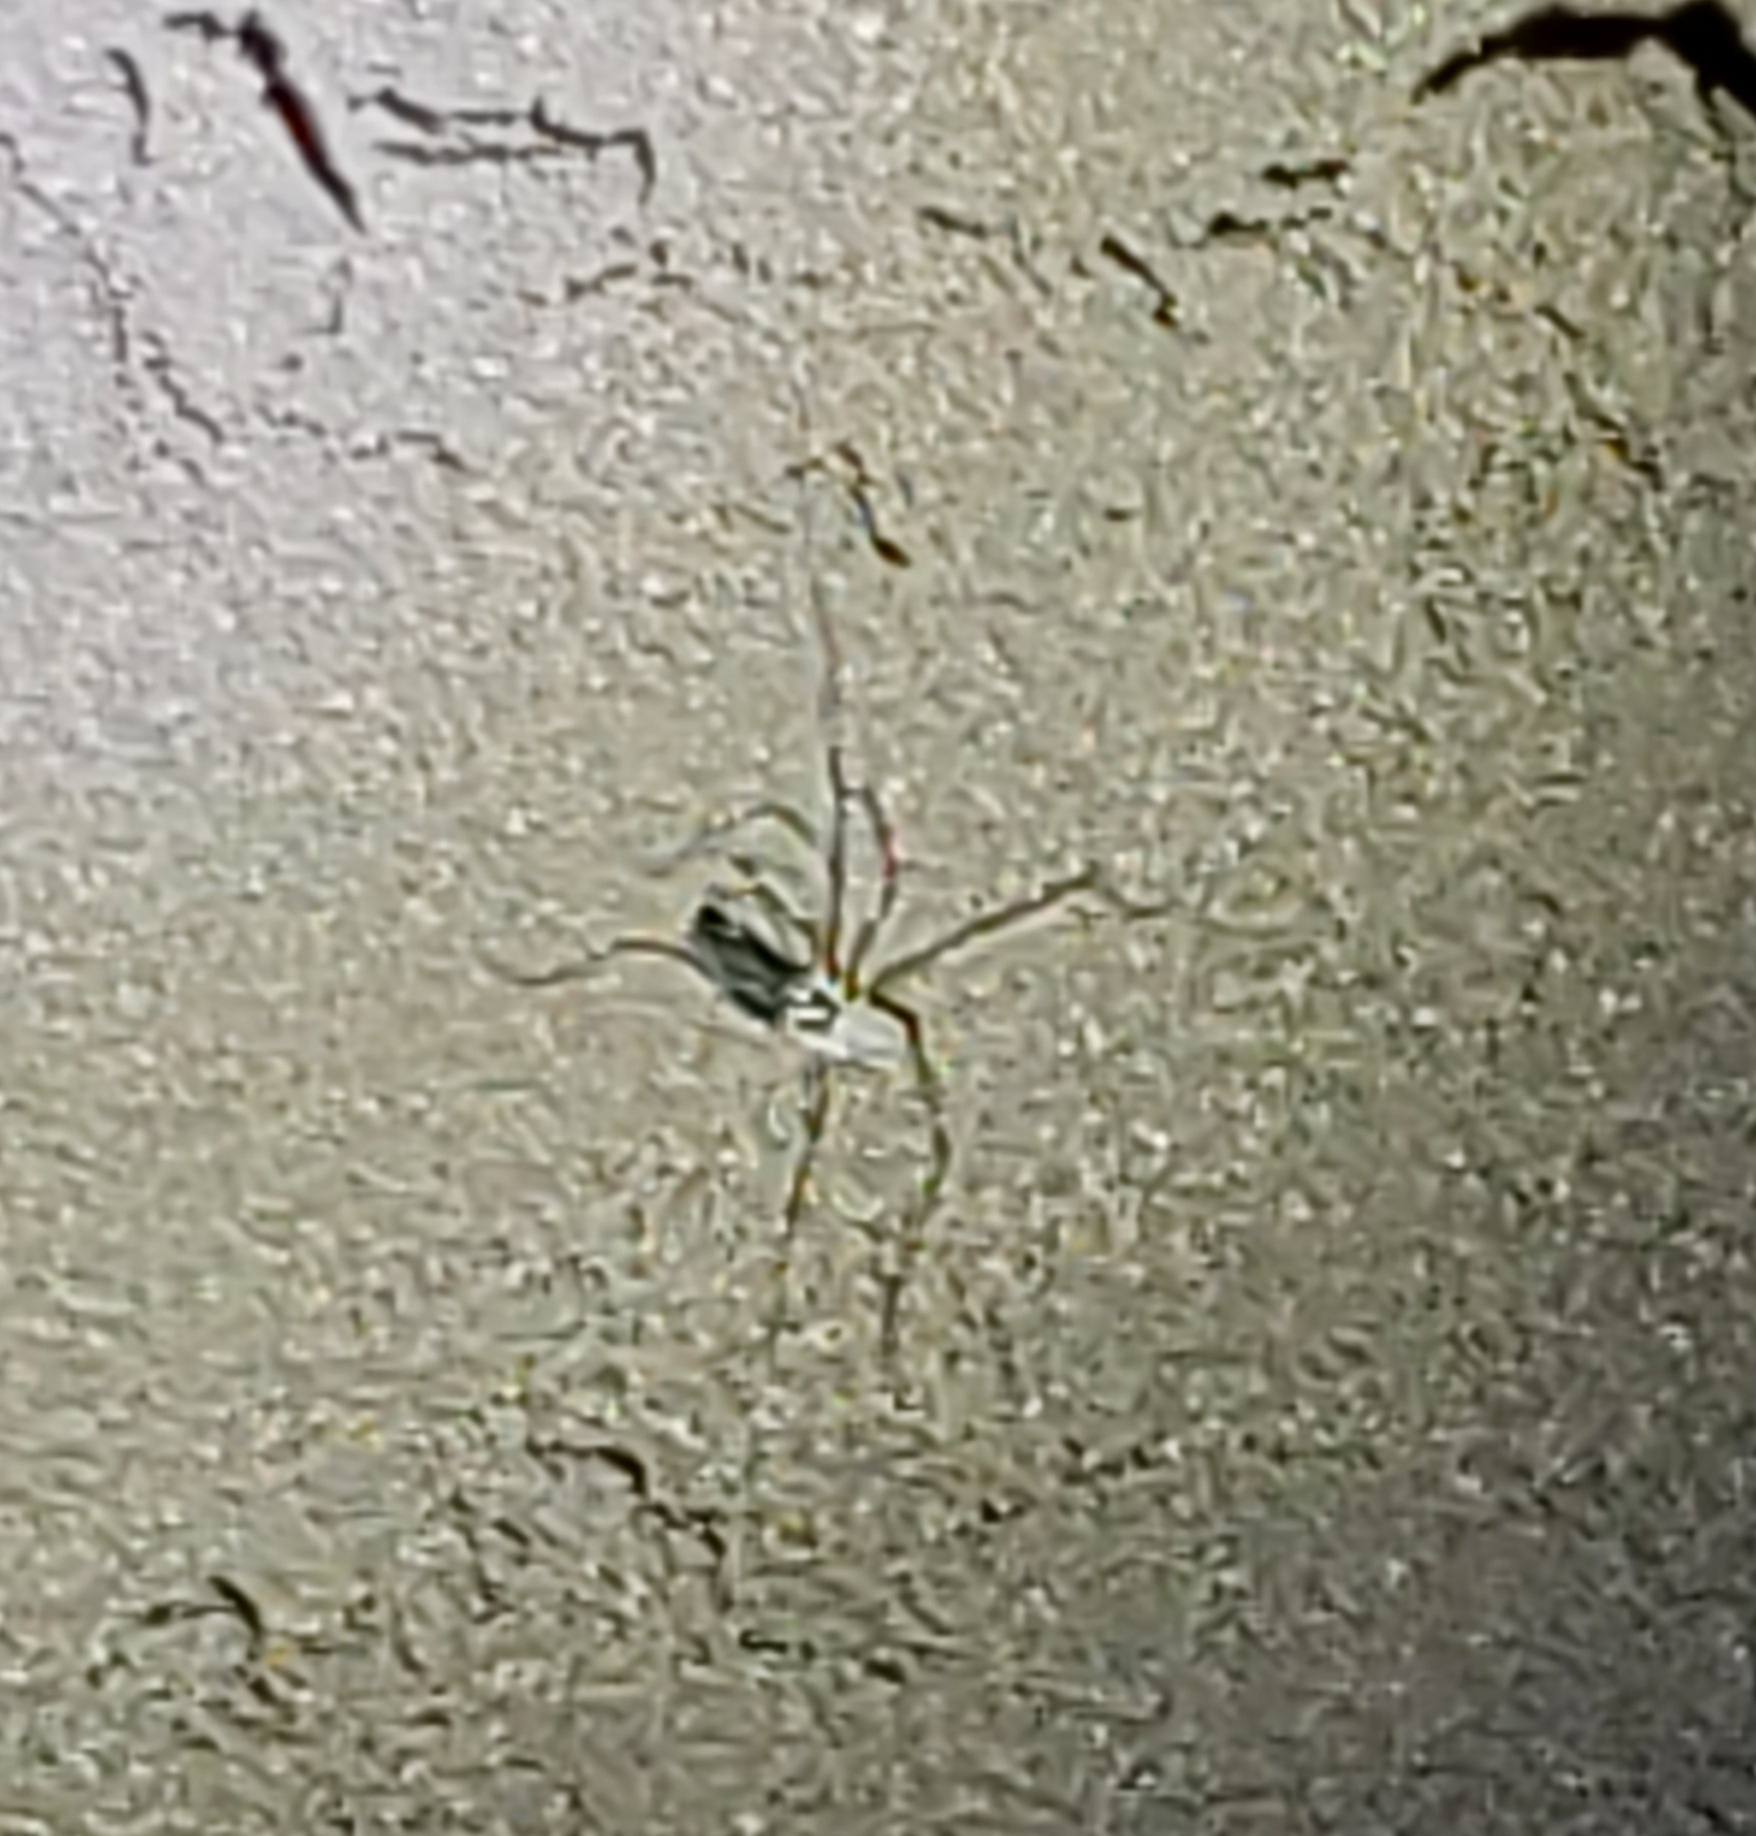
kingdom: Animalia
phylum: Arthropoda
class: Arachnida
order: Opiliones
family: Taracidae
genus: Taracus
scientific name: Taracus marchingtoni
